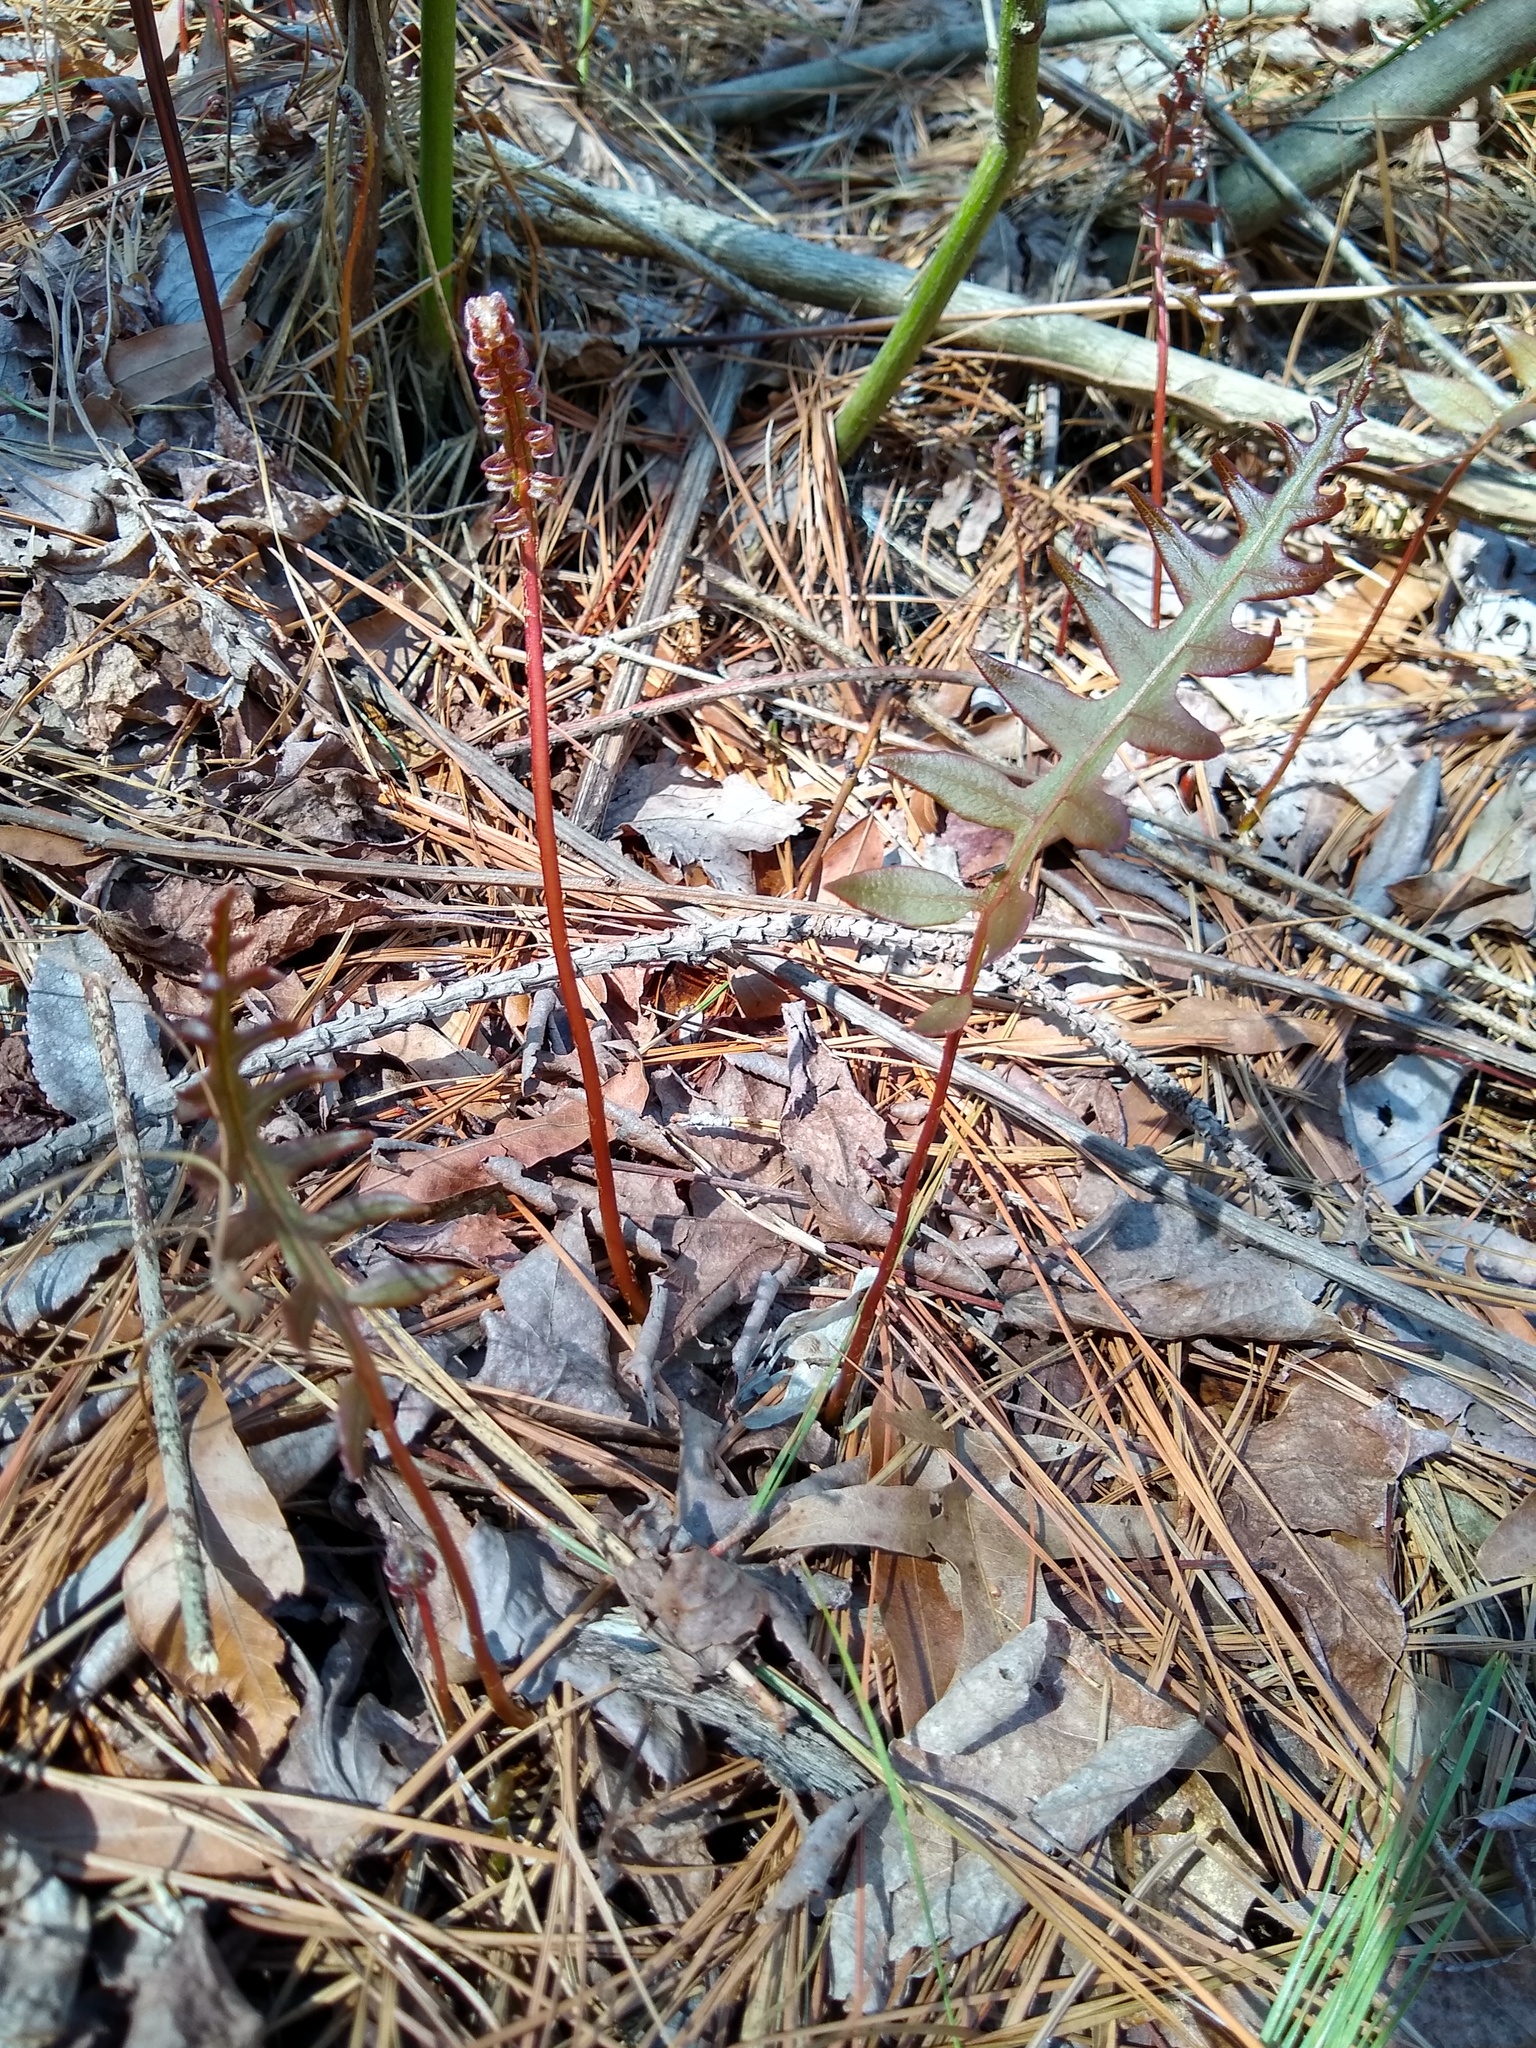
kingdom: Plantae
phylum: Tracheophyta
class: Polypodiopsida
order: Polypodiales
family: Blechnaceae
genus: Lorinseria
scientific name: Lorinseria areolata
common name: Dwarf chain fern
